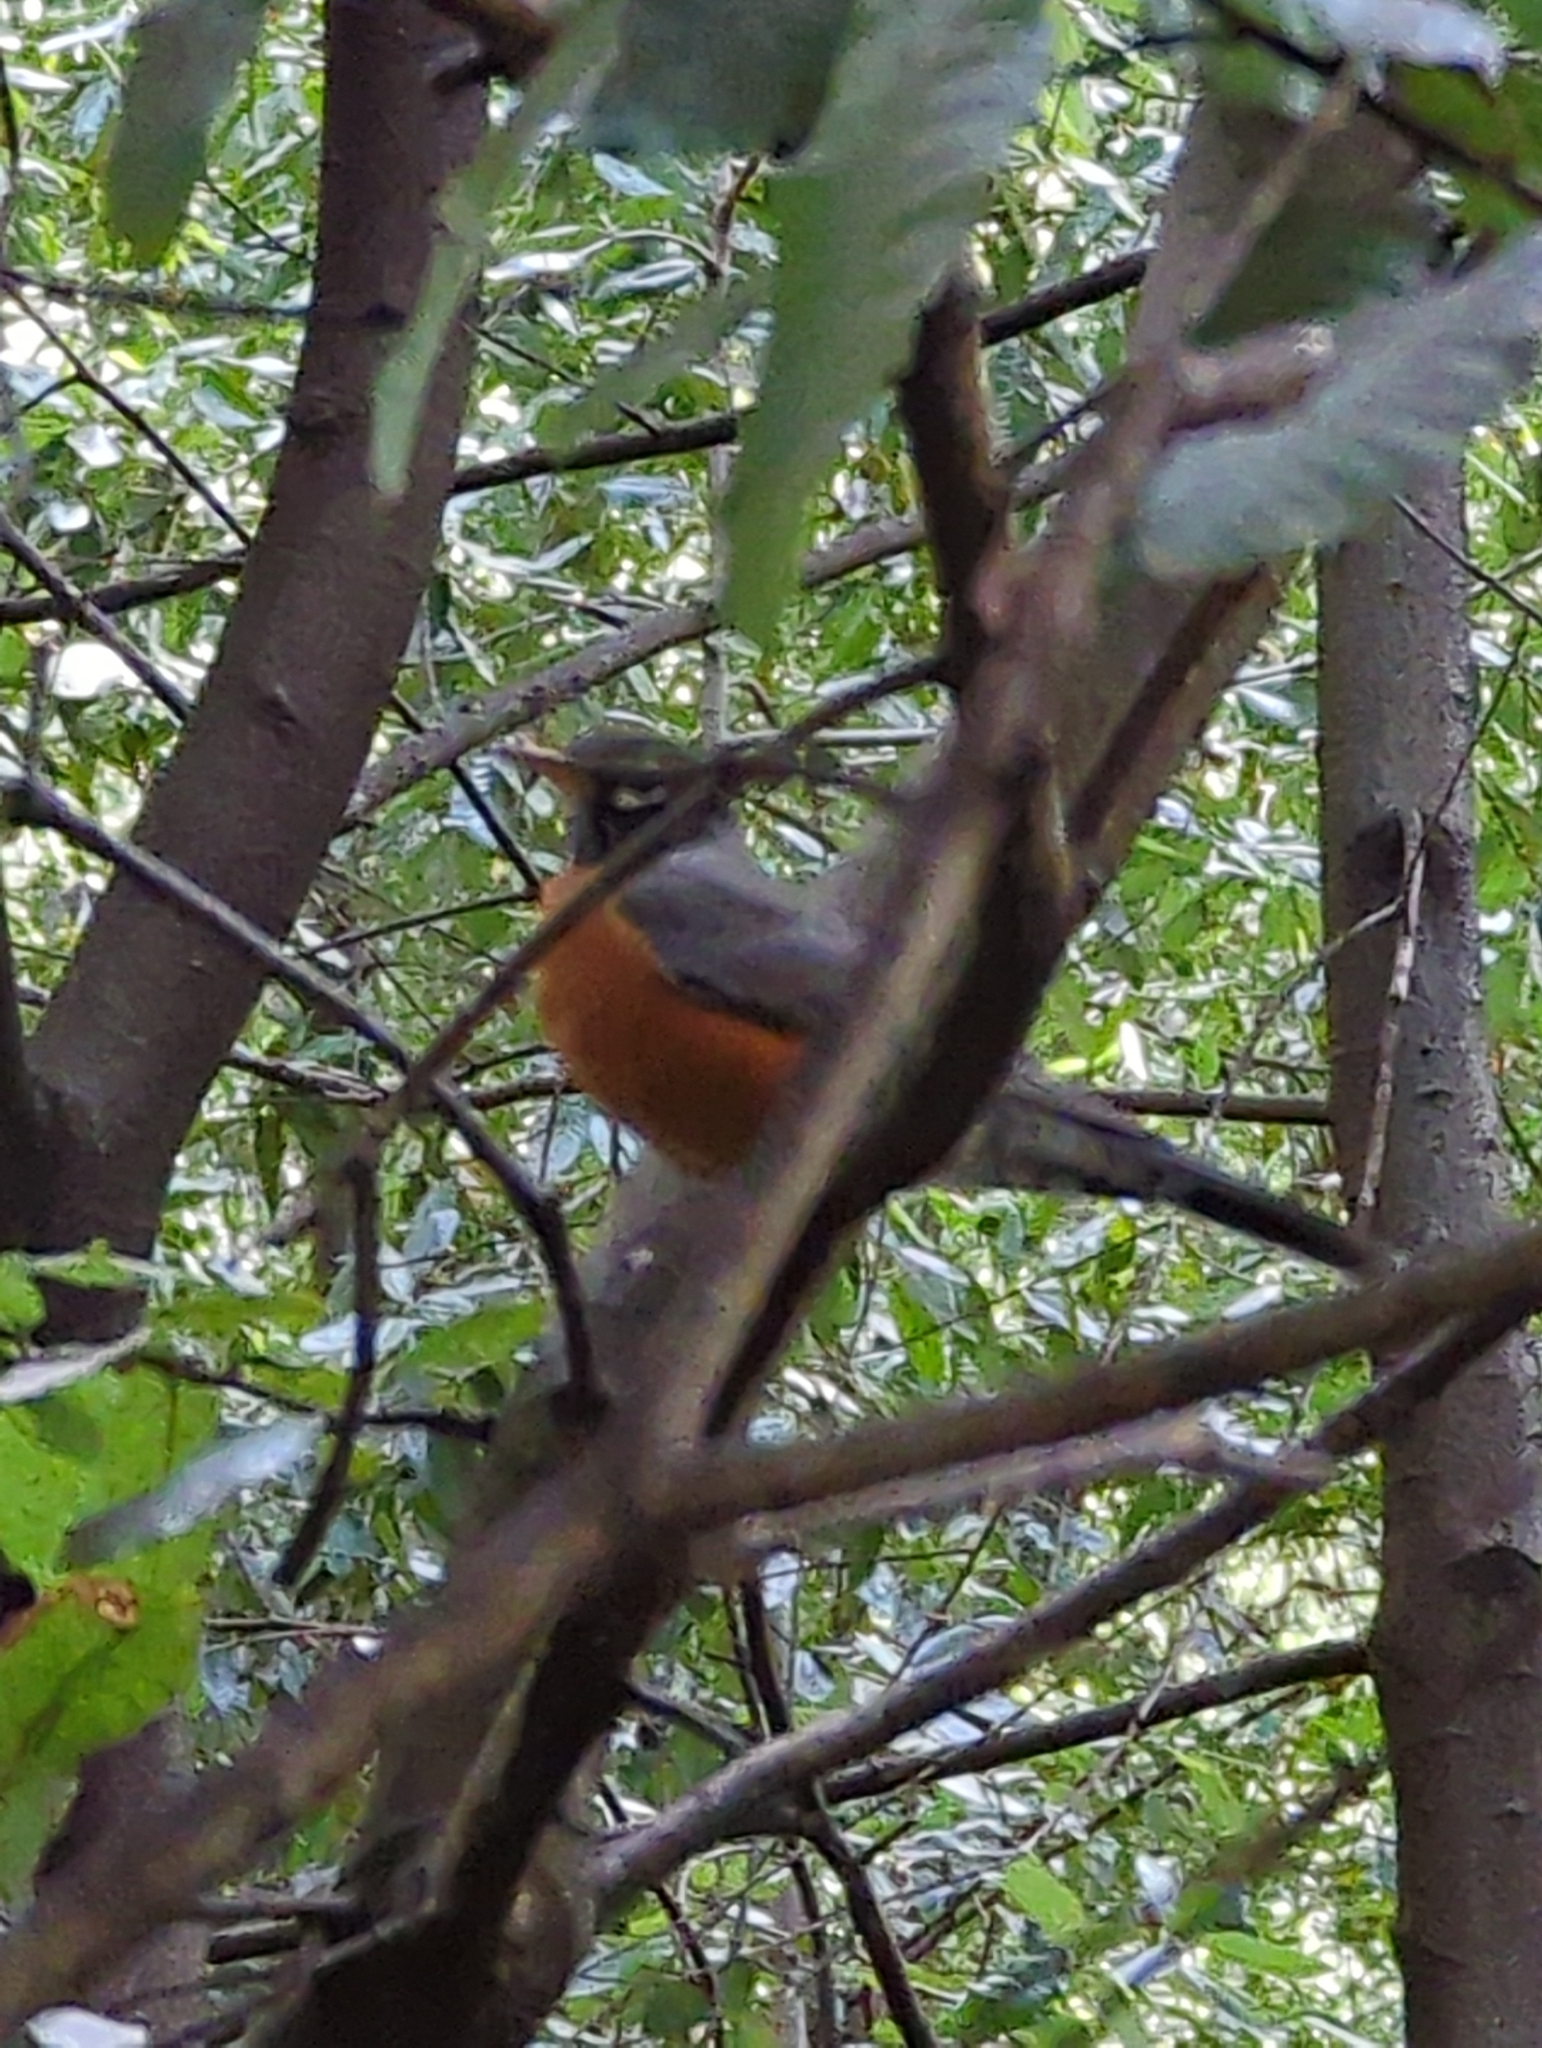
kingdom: Animalia
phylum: Chordata
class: Aves
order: Passeriformes
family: Turdidae
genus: Turdus
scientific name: Turdus migratorius
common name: American robin
